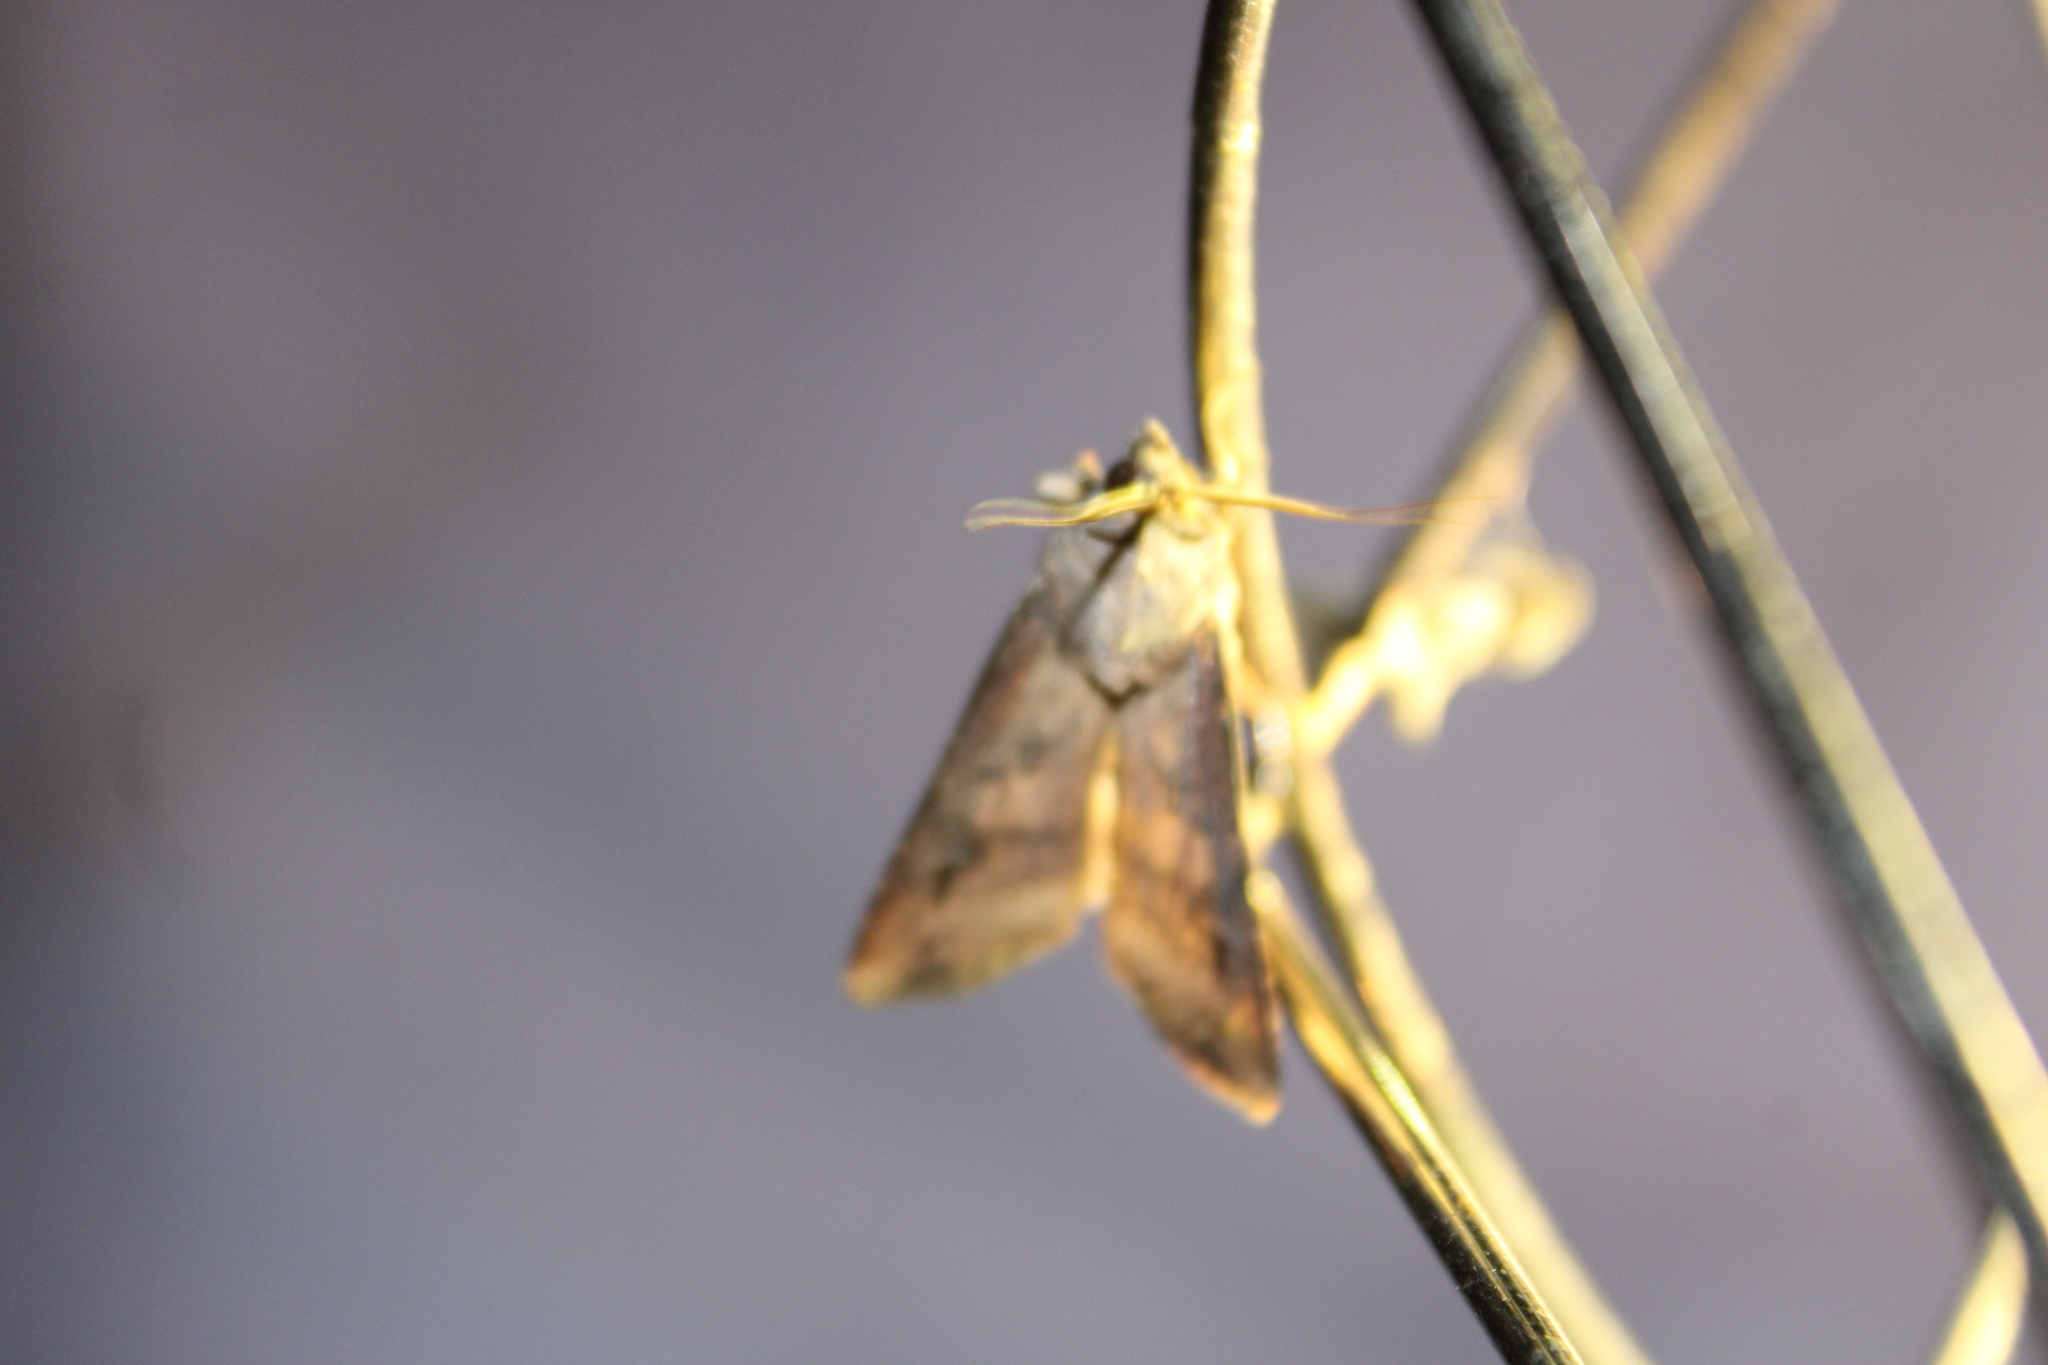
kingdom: Animalia
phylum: Arthropoda
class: Insecta
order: Lepidoptera
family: Noctuidae
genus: Agrotis
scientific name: Agrotis ipsilon
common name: Dark sword-grass
